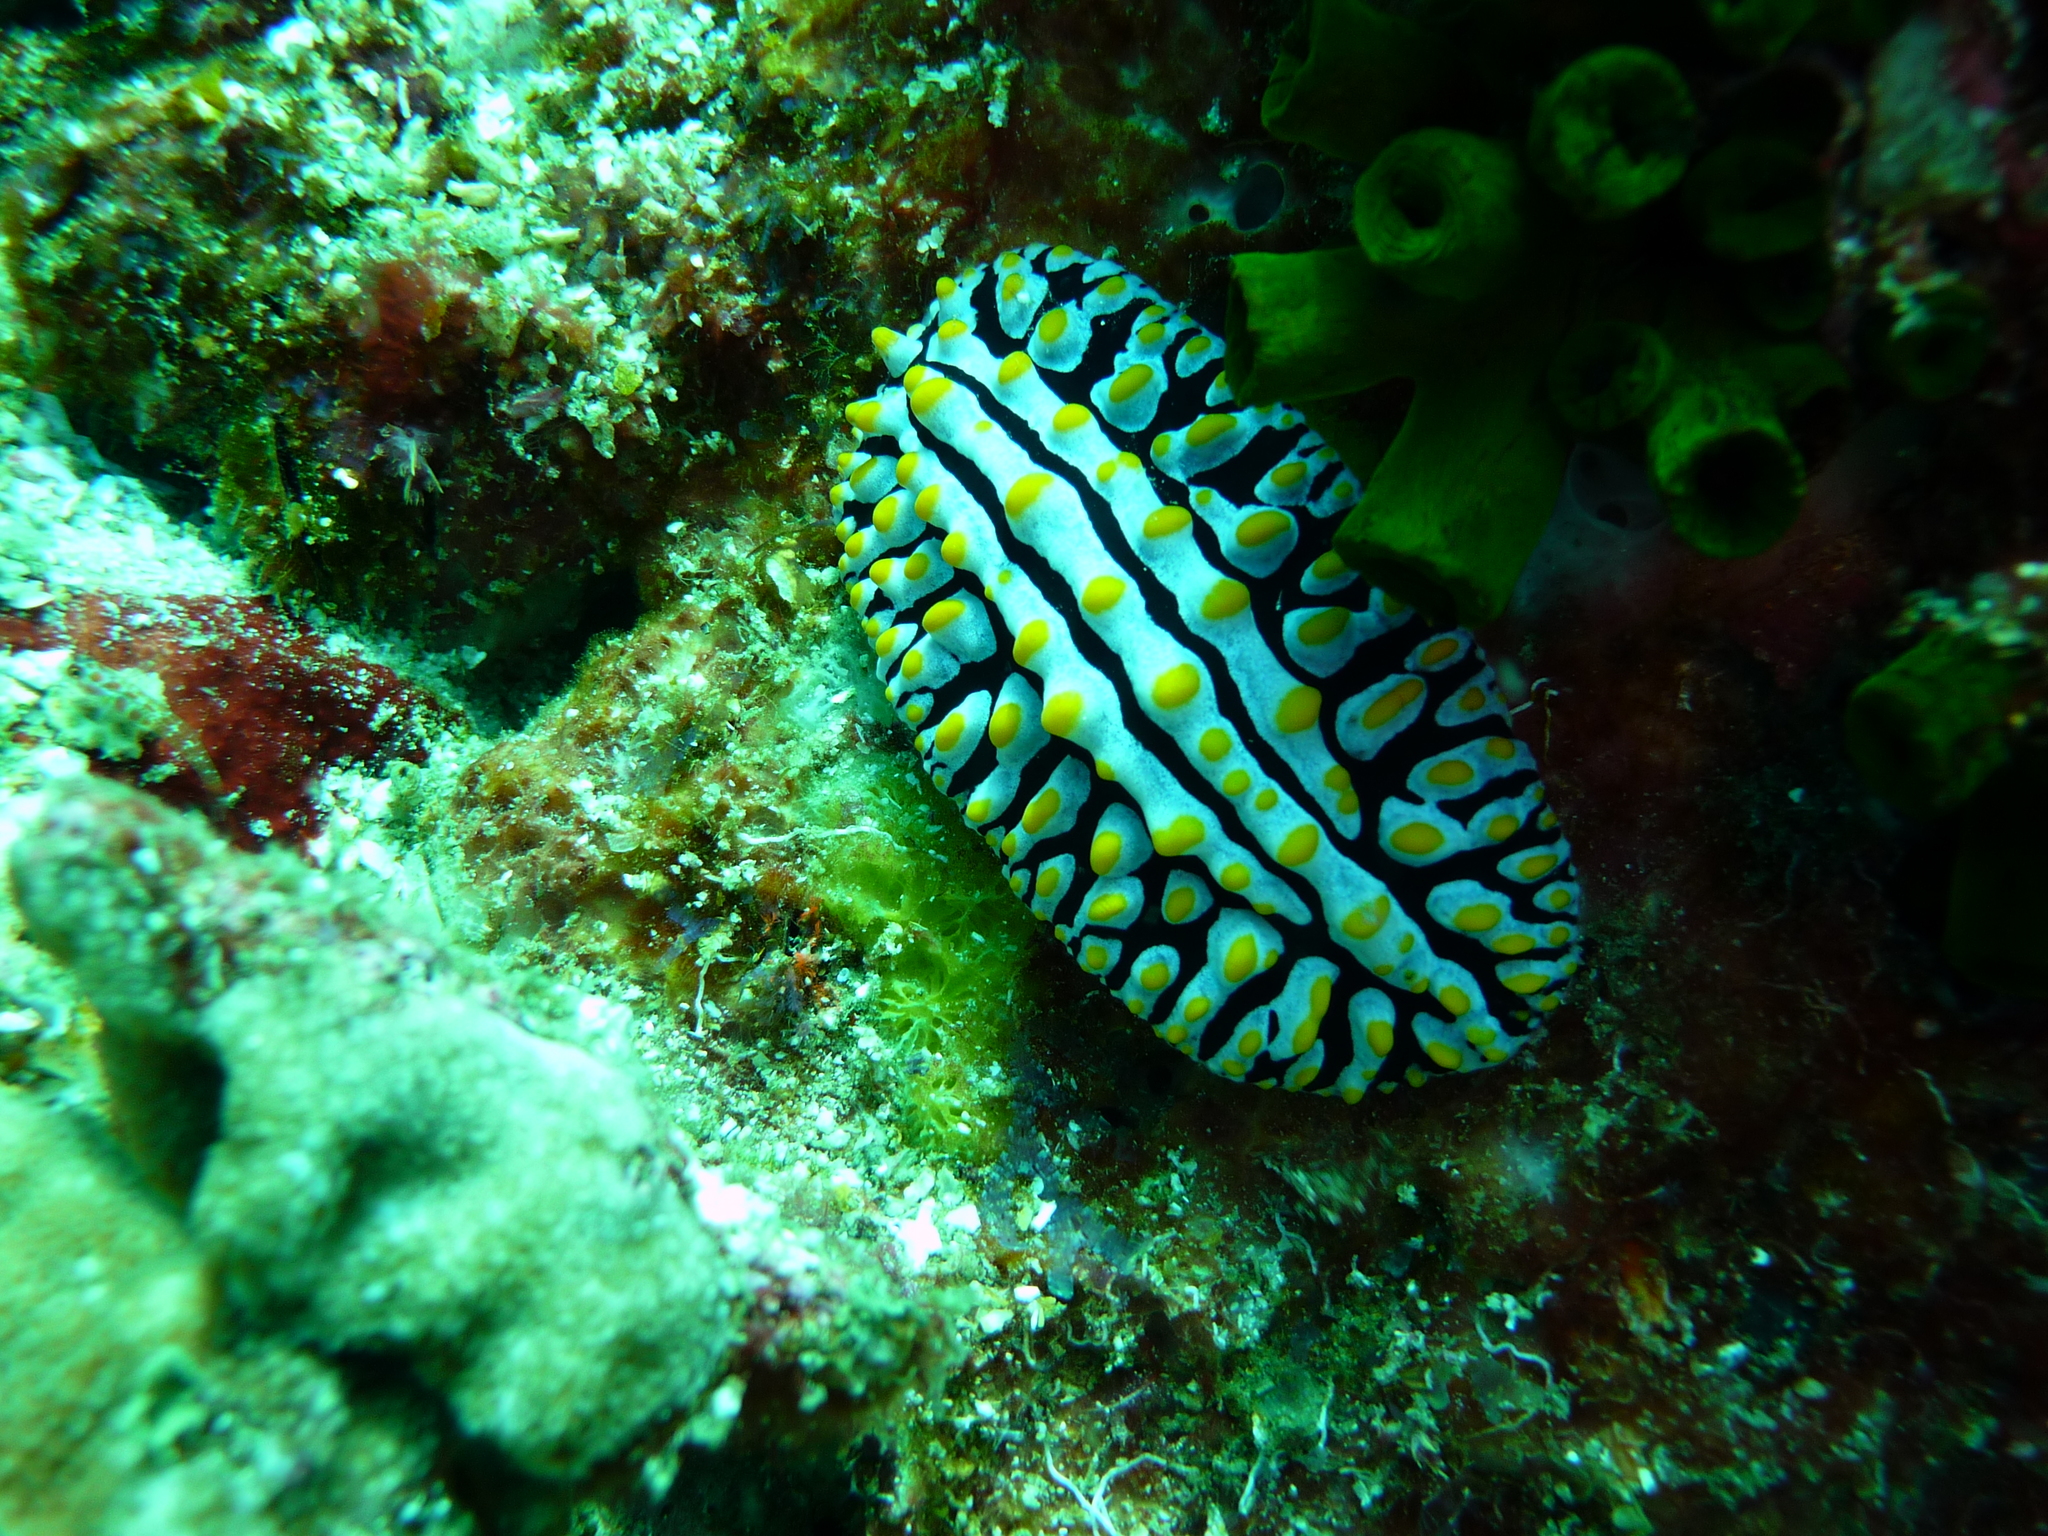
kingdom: Animalia
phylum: Mollusca
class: Gastropoda
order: Nudibranchia
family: Phyllidiidae
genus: Phyllidia
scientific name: Phyllidia varicosa
